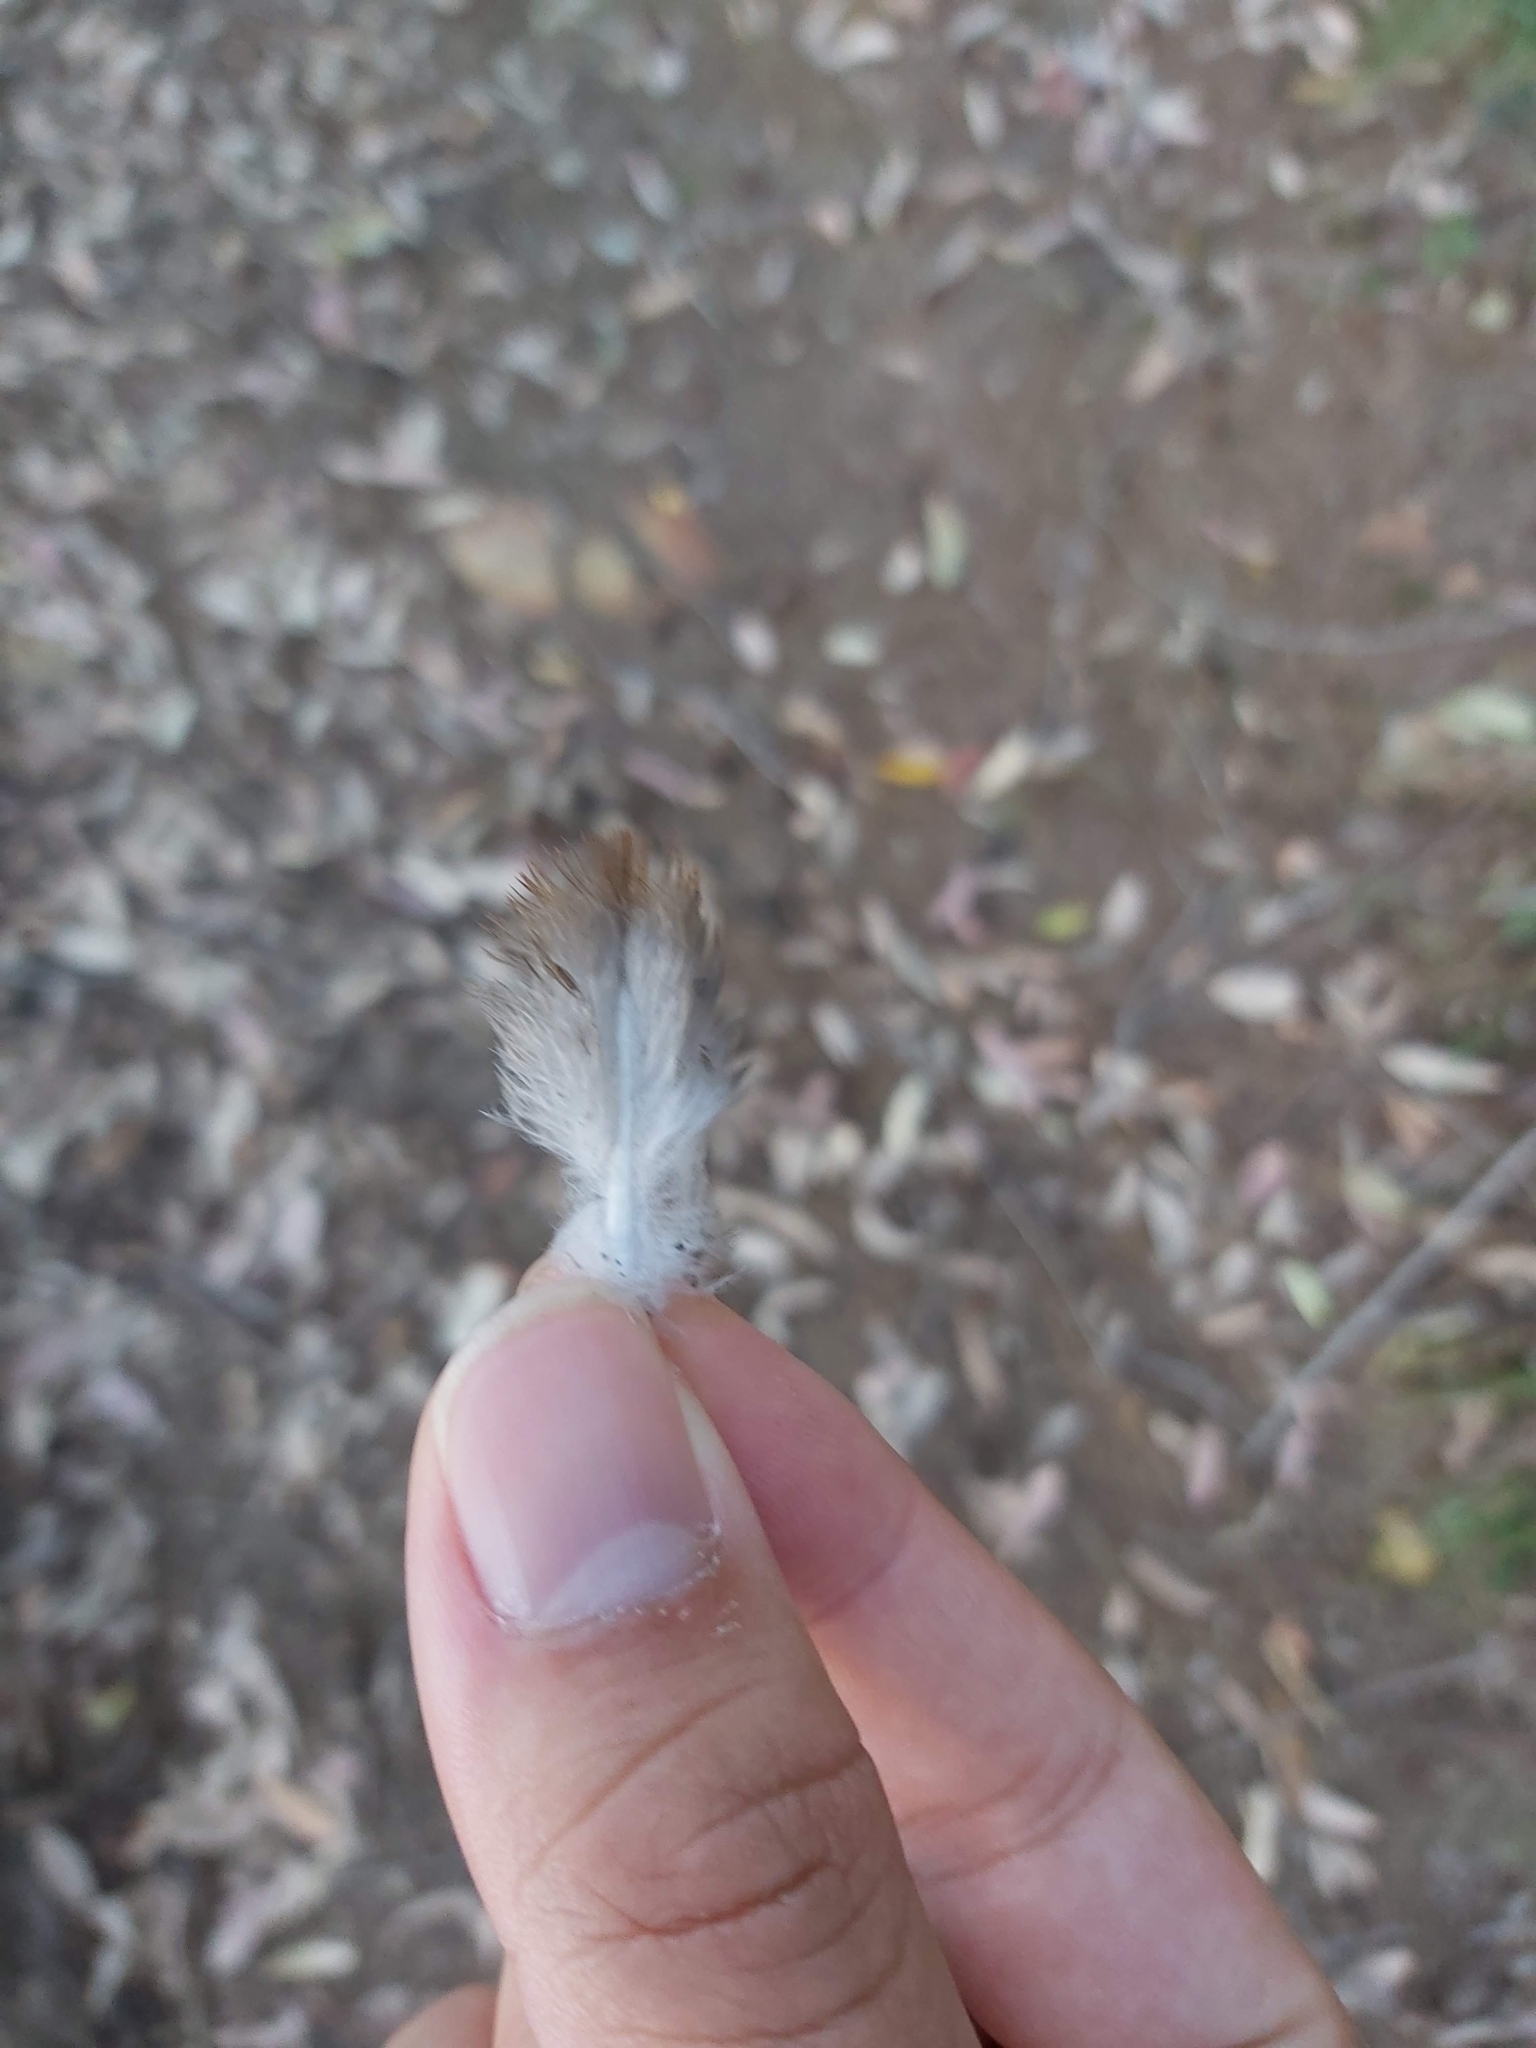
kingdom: Animalia
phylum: Chordata
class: Aves
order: Columbiformes
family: Columbidae
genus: Macropygia
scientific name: Macropygia phasianella
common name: Brown cuckoo-dove
